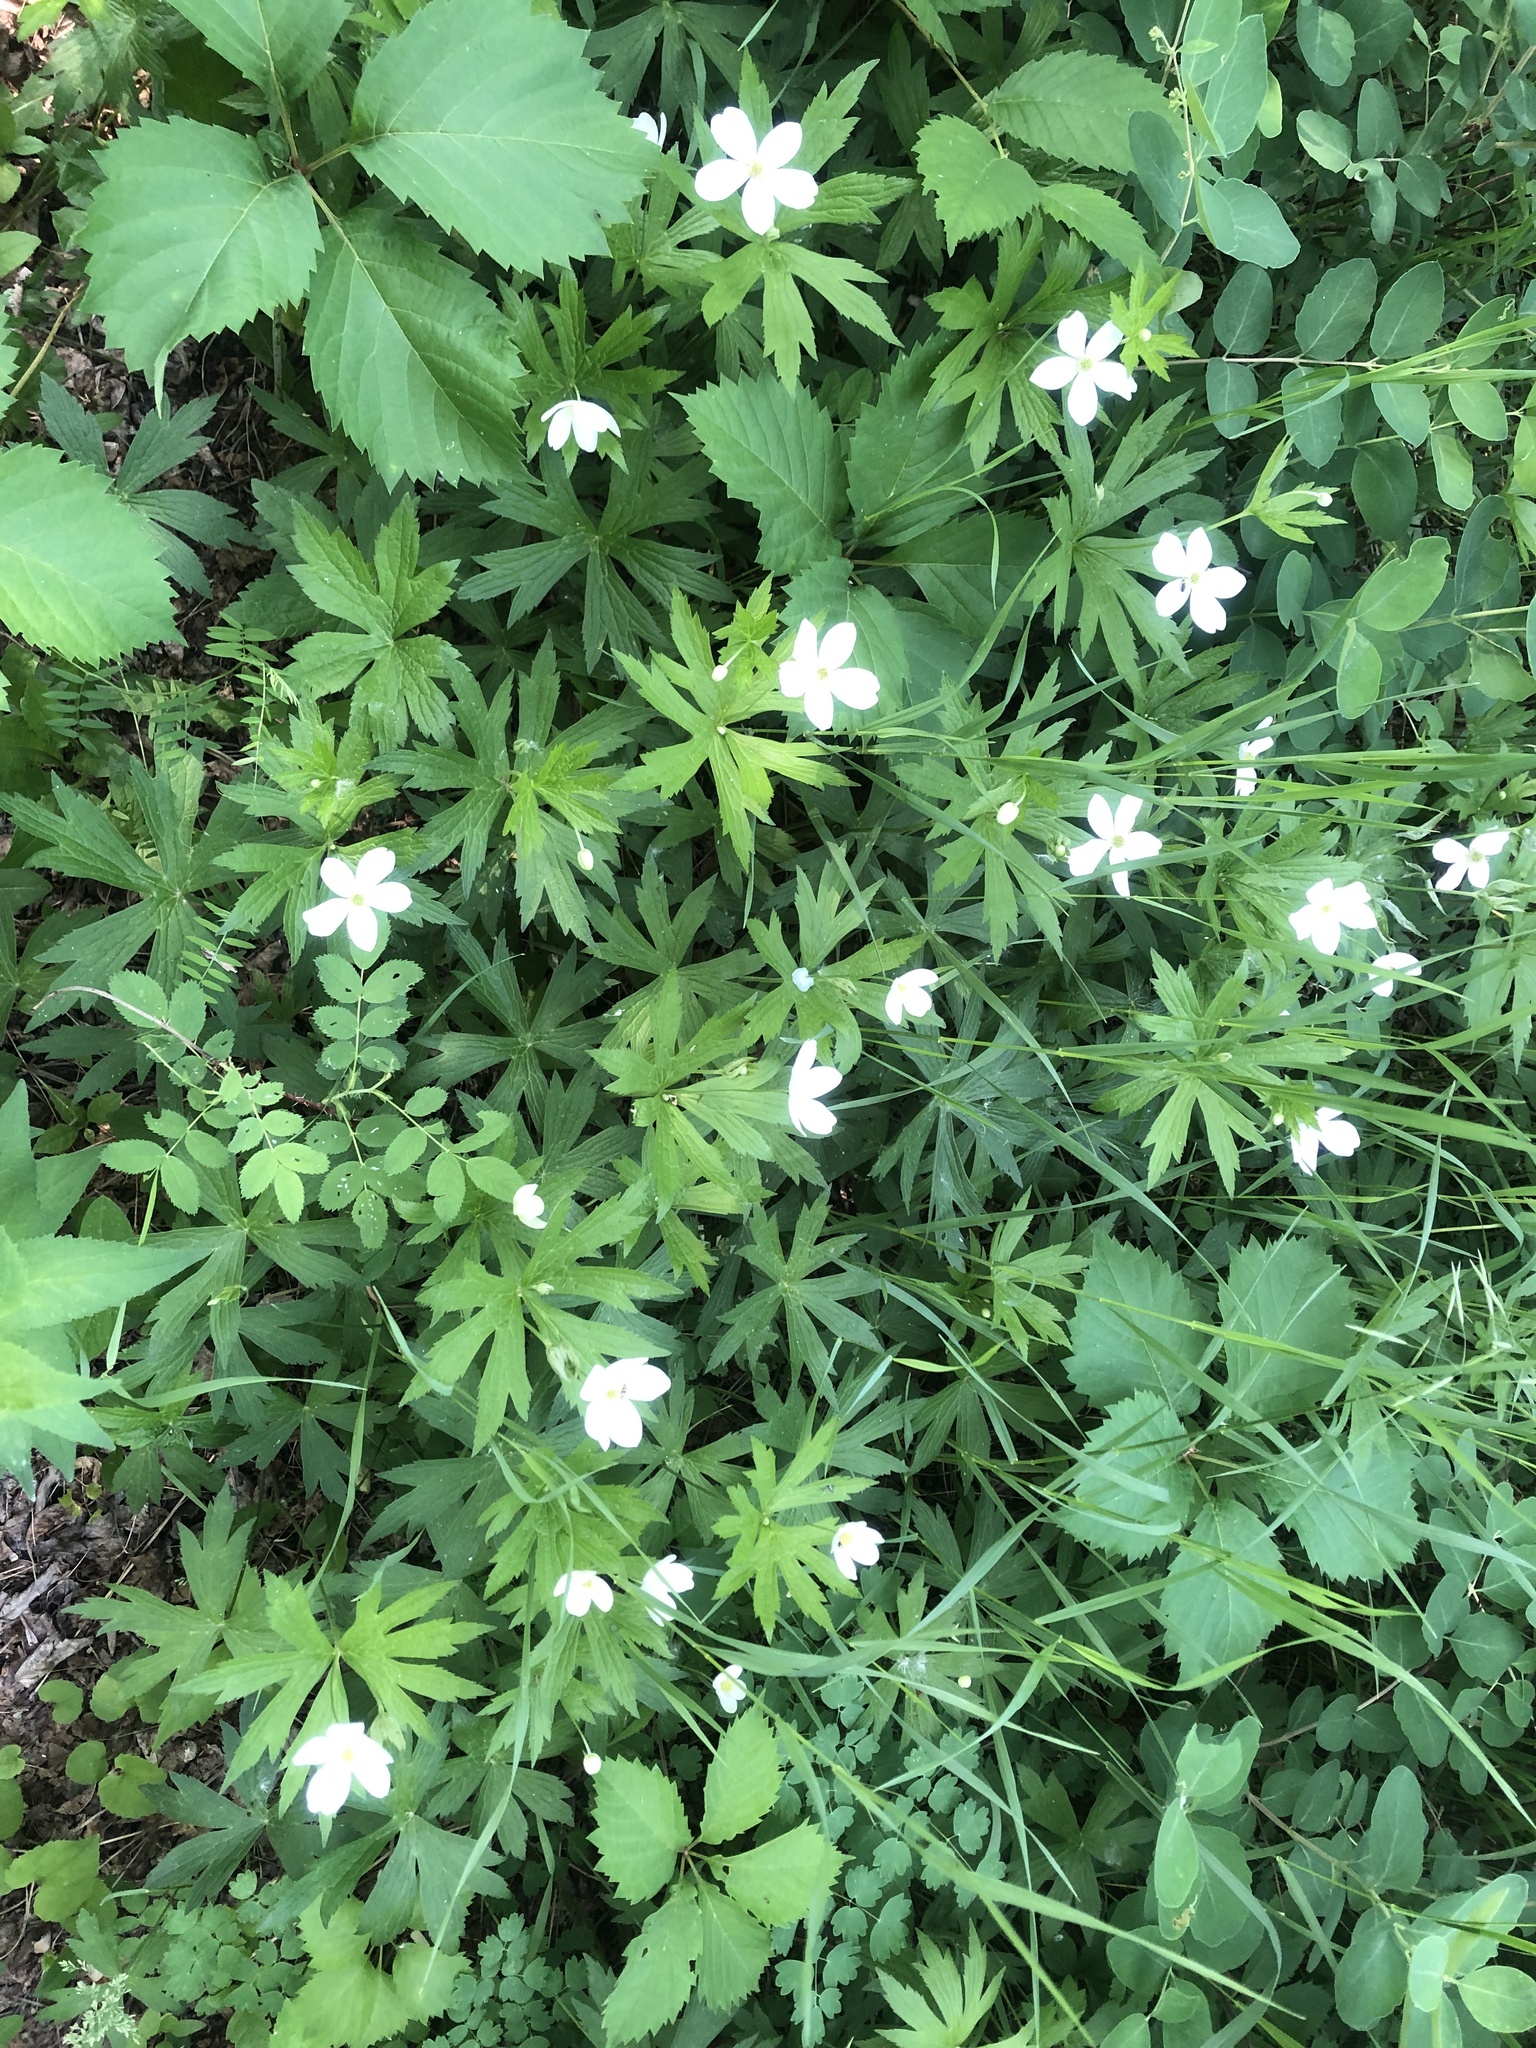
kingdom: Plantae
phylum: Tracheophyta
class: Magnoliopsida
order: Ranunculales
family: Ranunculaceae
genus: Anemonastrum
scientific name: Anemonastrum canadense
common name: Canada anemone
